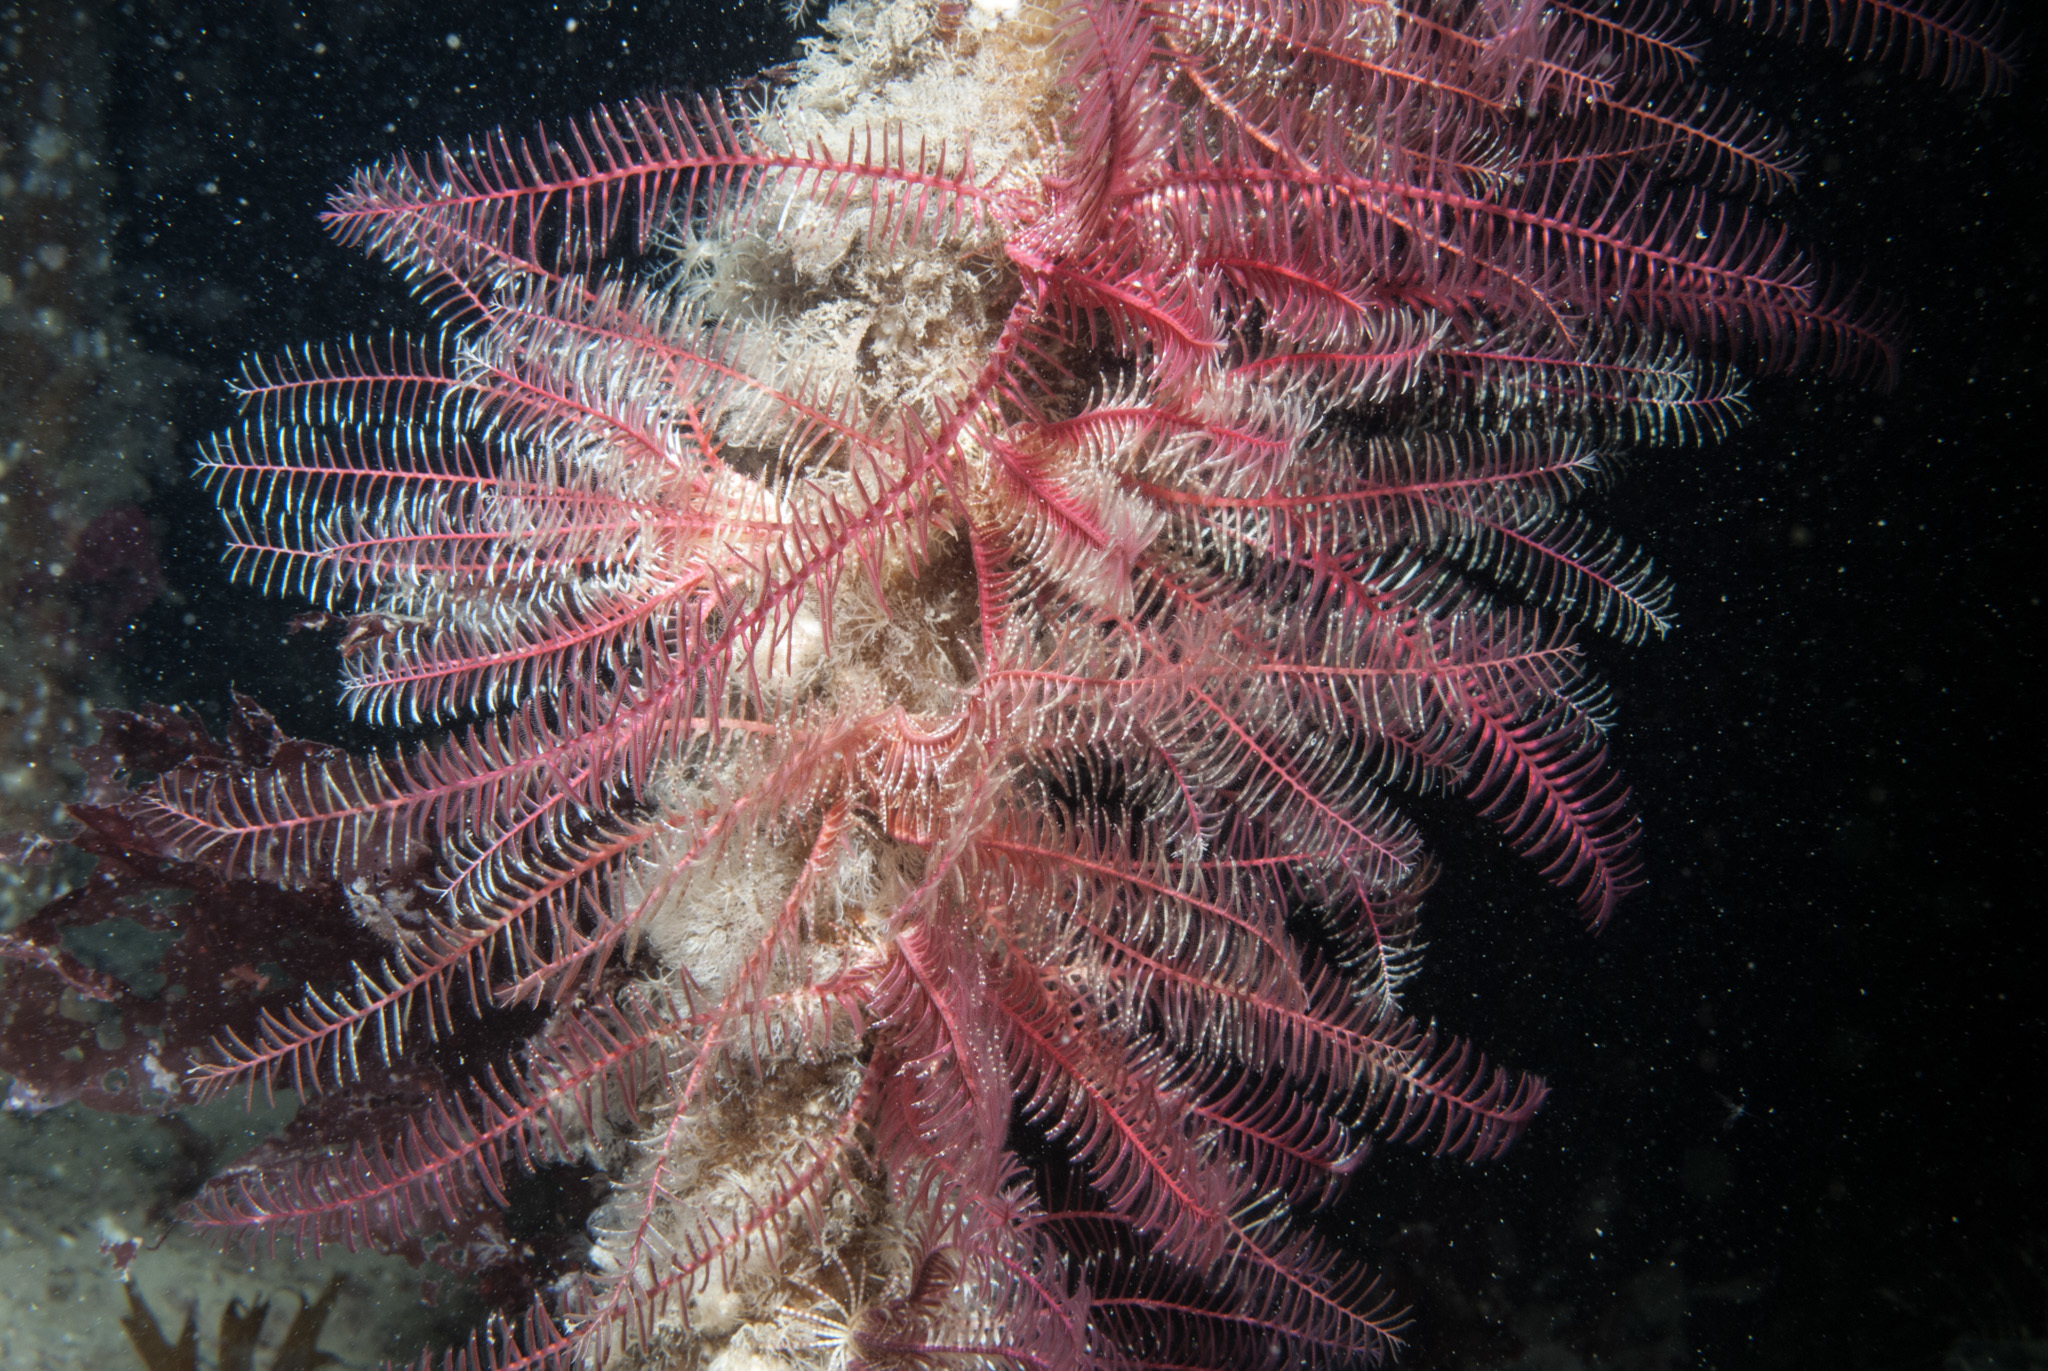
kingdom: Animalia
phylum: Echinodermata
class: Crinoidea
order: Comatulida
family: Antedonidae
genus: Antedon
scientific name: Antedon bifida
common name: Rosy feather-star
